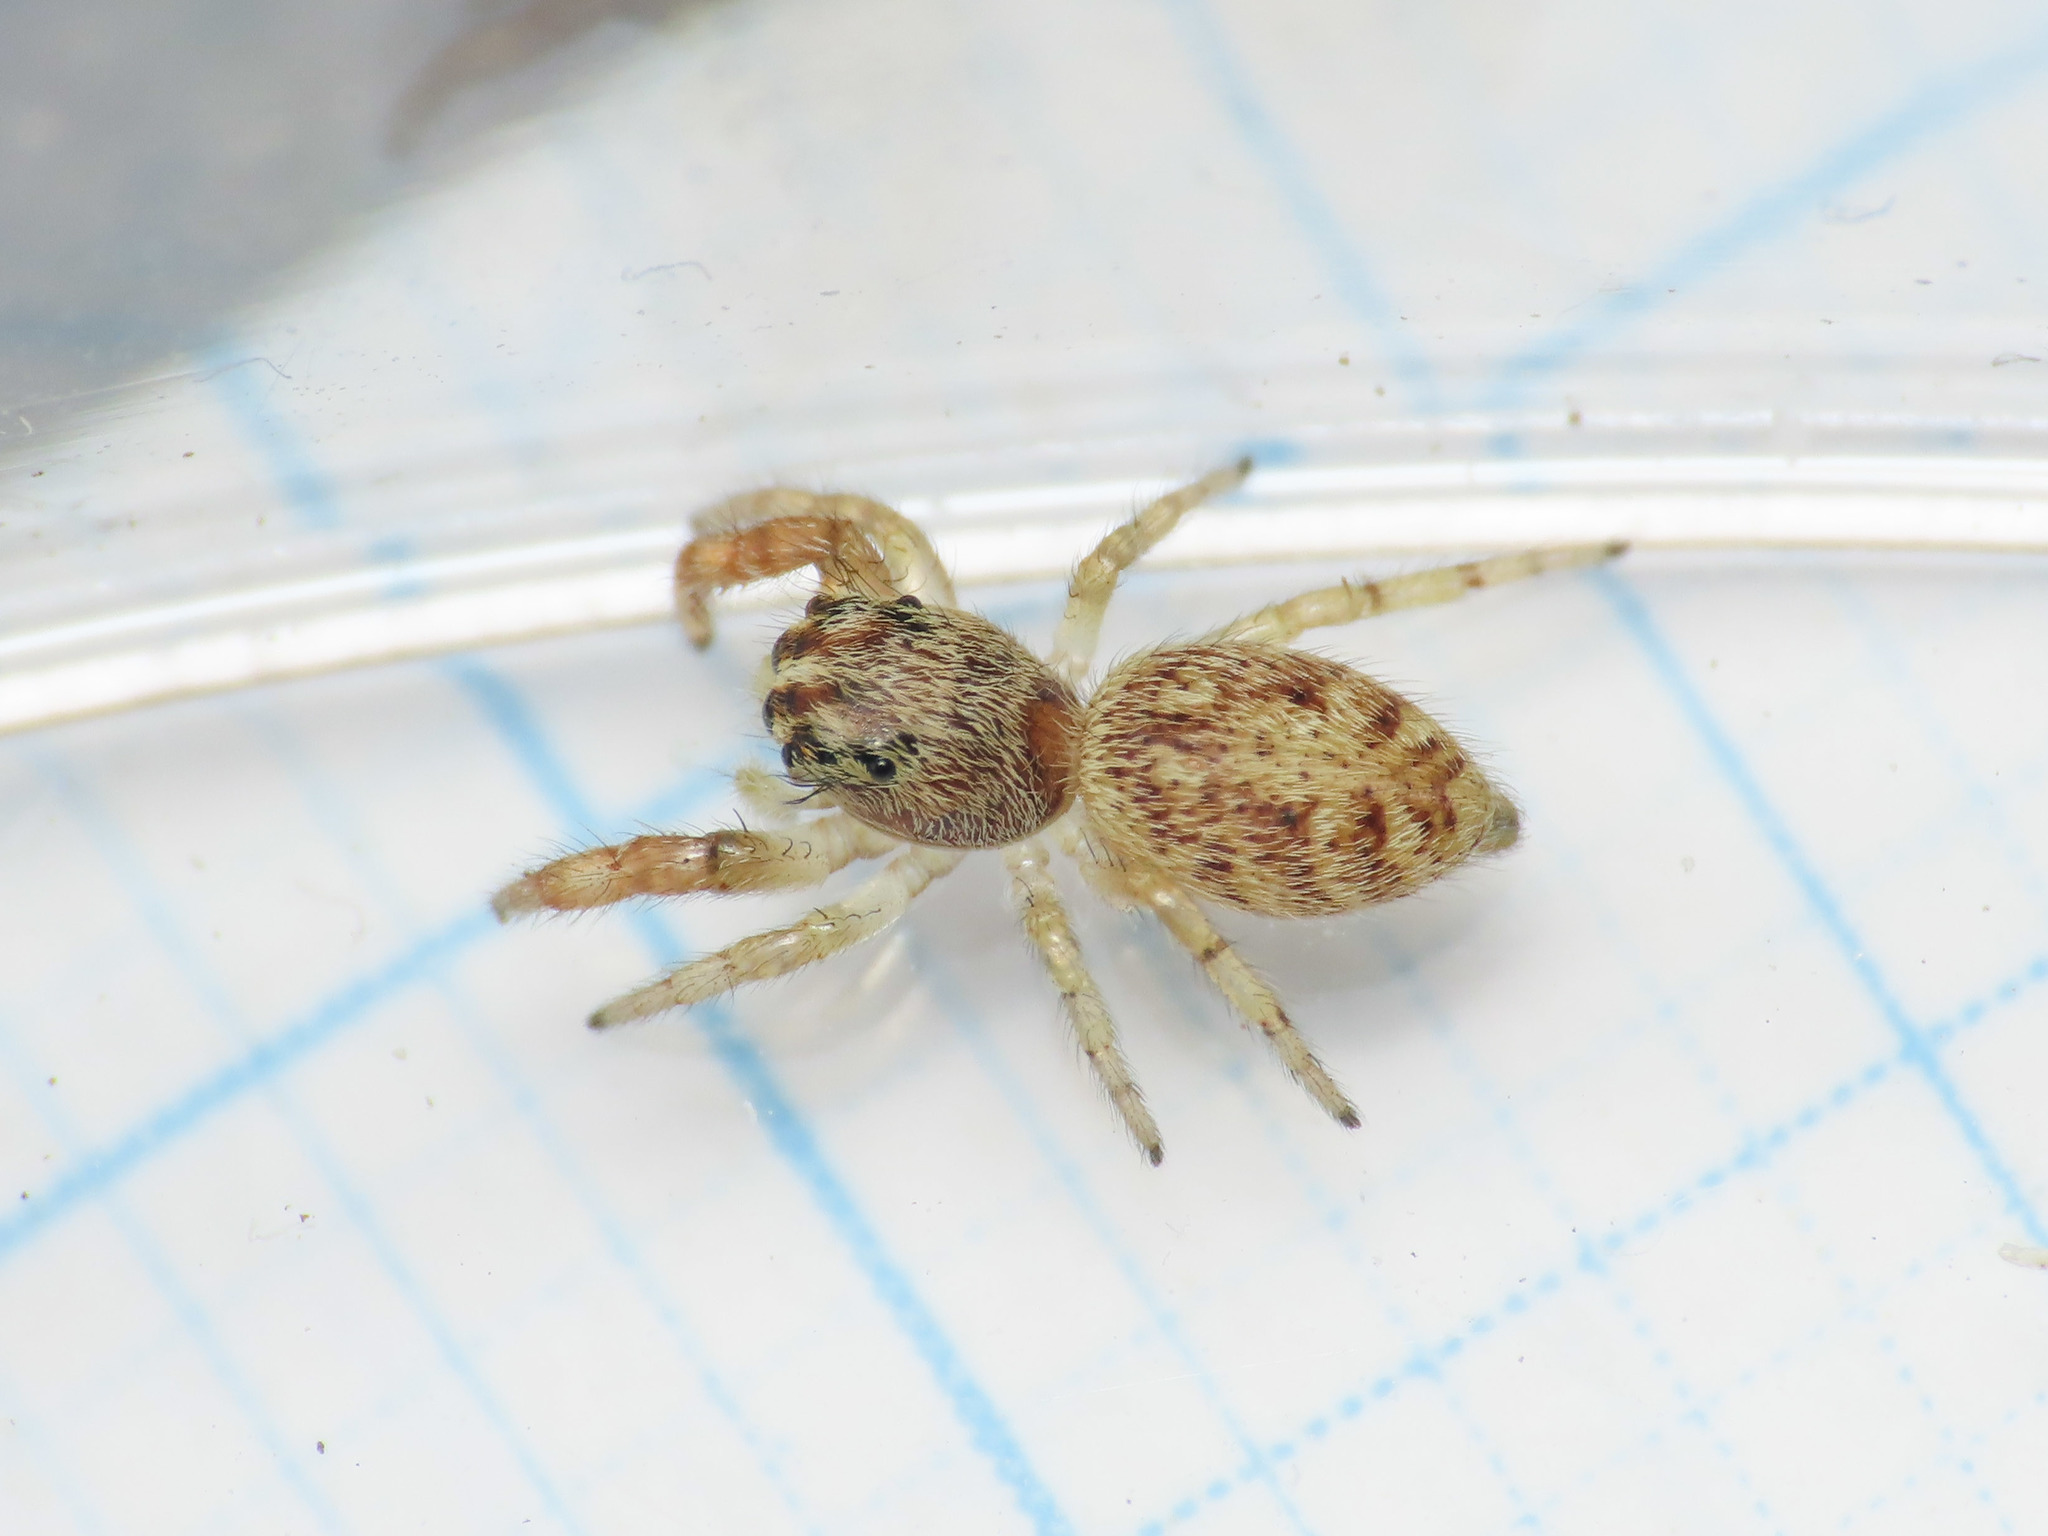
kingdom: Animalia
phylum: Arthropoda
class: Arachnida
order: Araneae
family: Salticidae
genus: Macaroeris
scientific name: Macaroeris nidicolens
